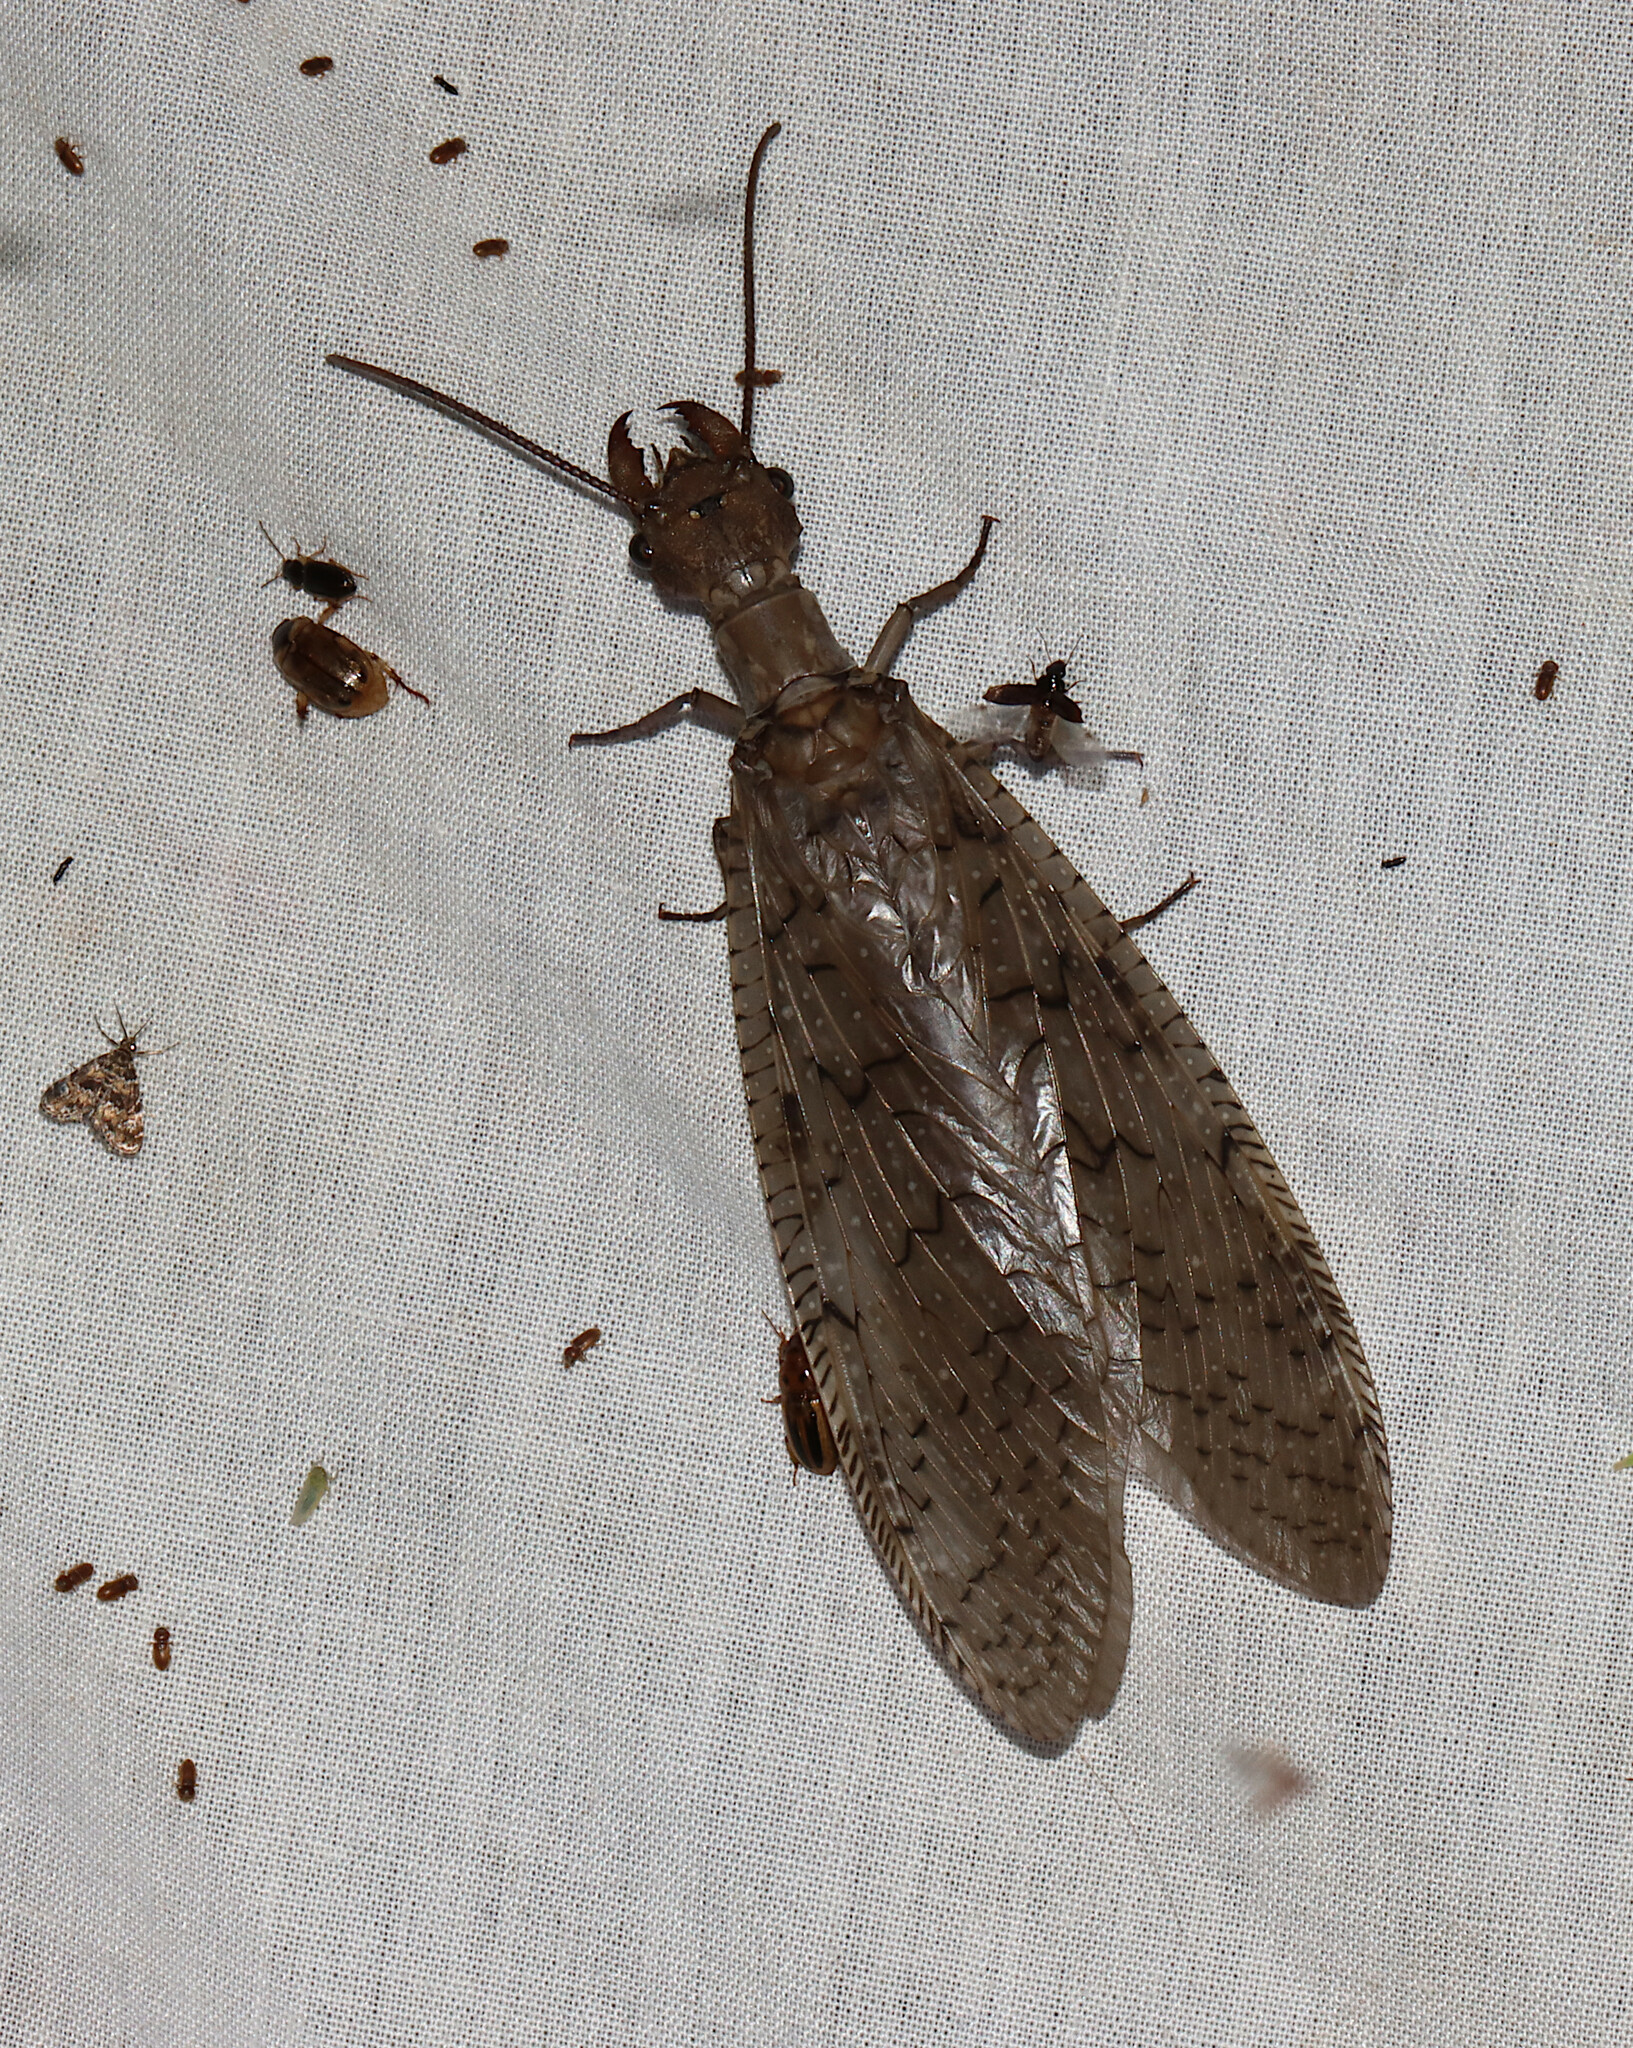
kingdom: Animalia
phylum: Arthropoda
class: Insecta
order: Megaloptera
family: Corydalidae
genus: Corydalus
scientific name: Corydalus cornutus
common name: Dobsonfly
